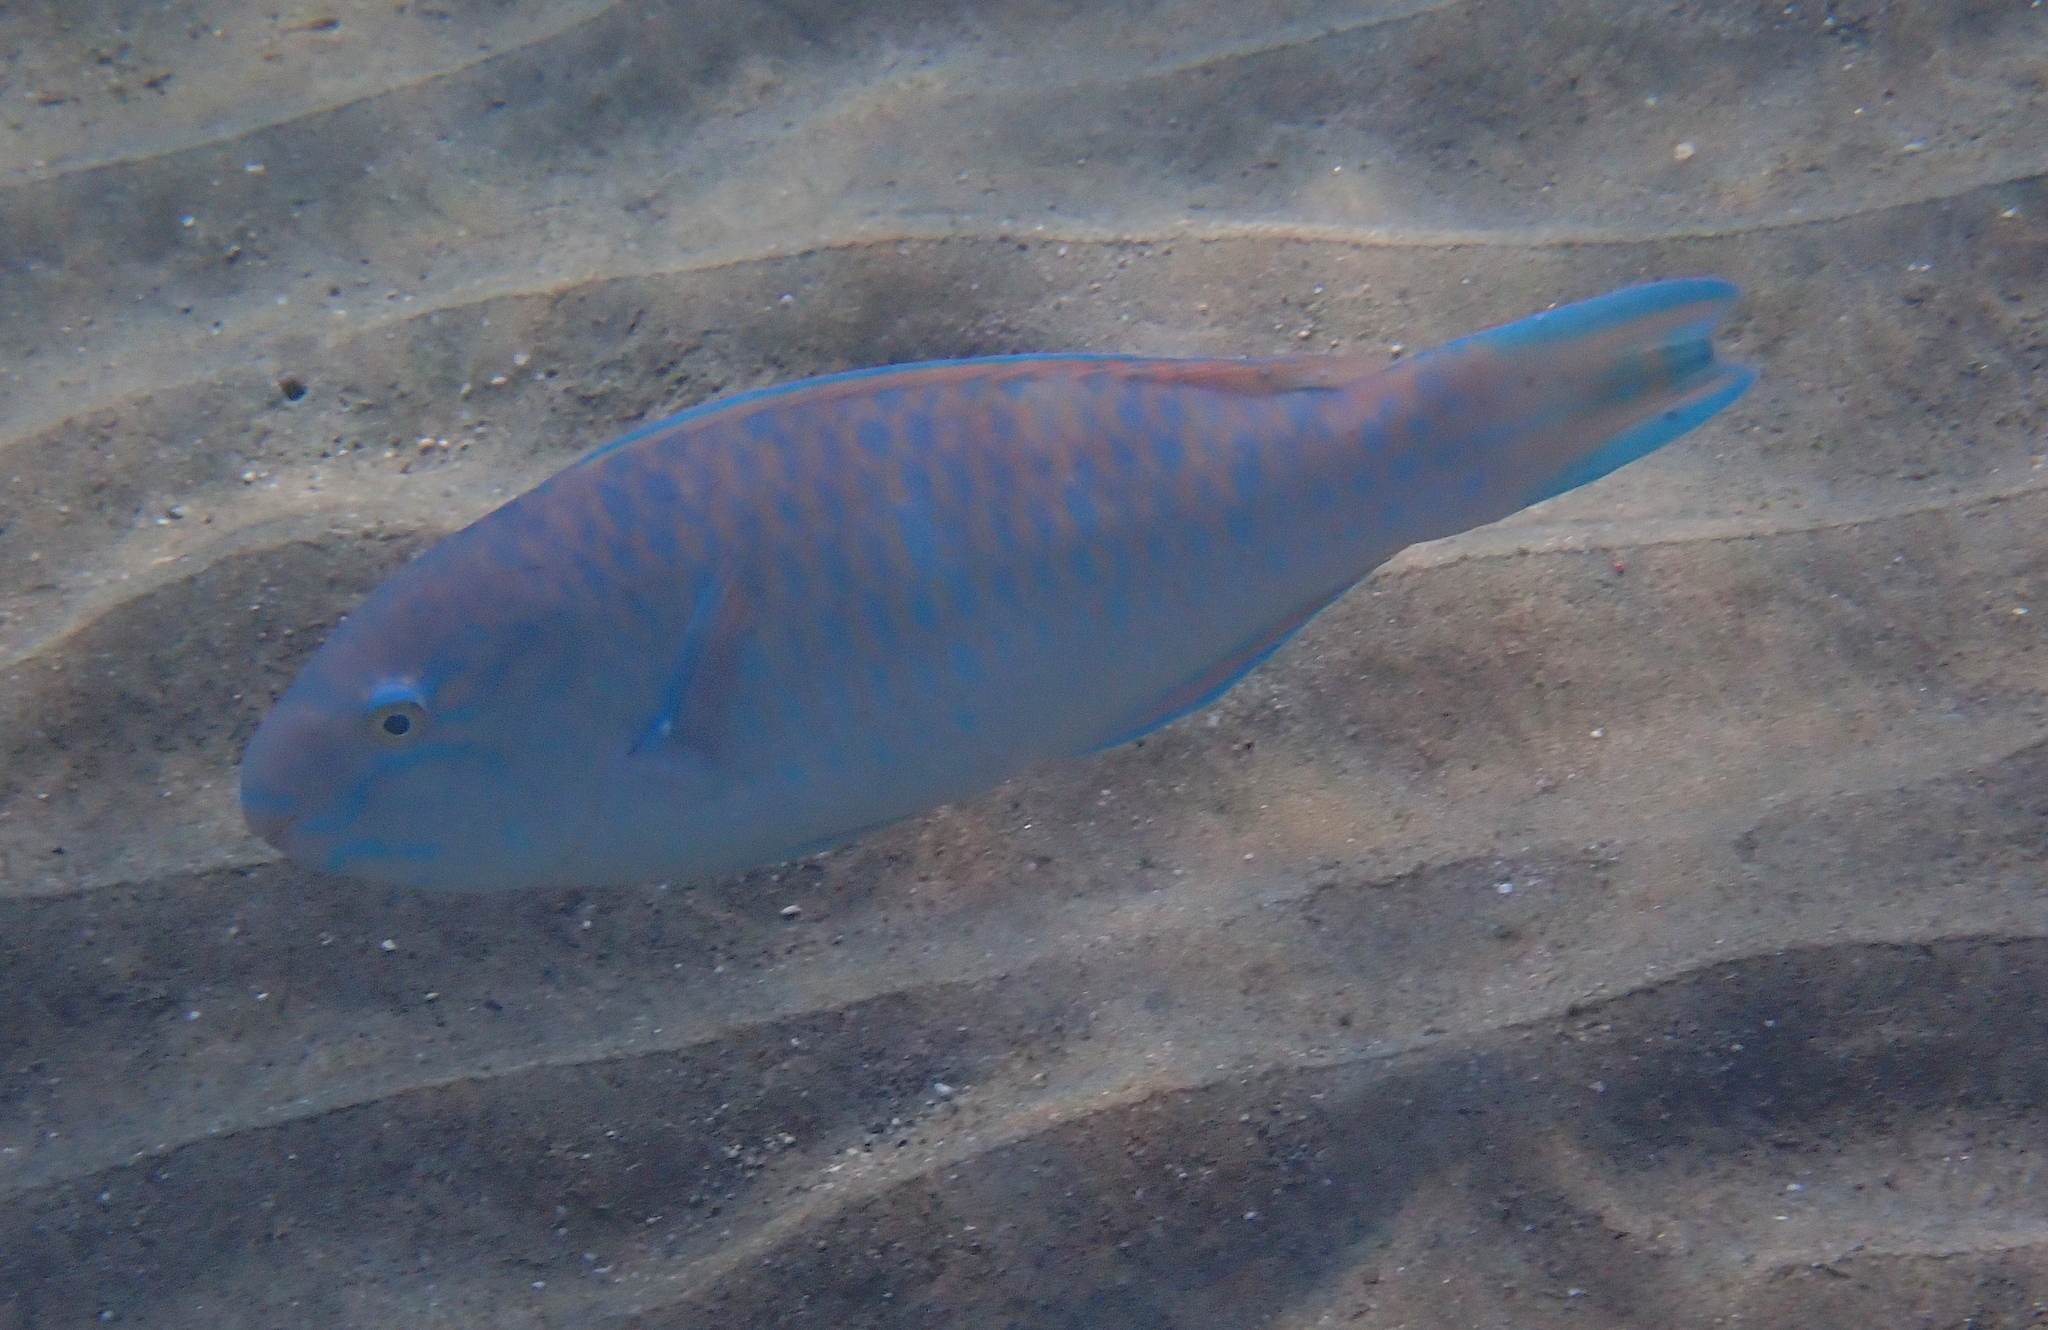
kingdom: Animalia
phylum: Chordata
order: Perciformes
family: Scaridae
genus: Scarus
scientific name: Scarus ghobban
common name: Blue-barred parrotfish
